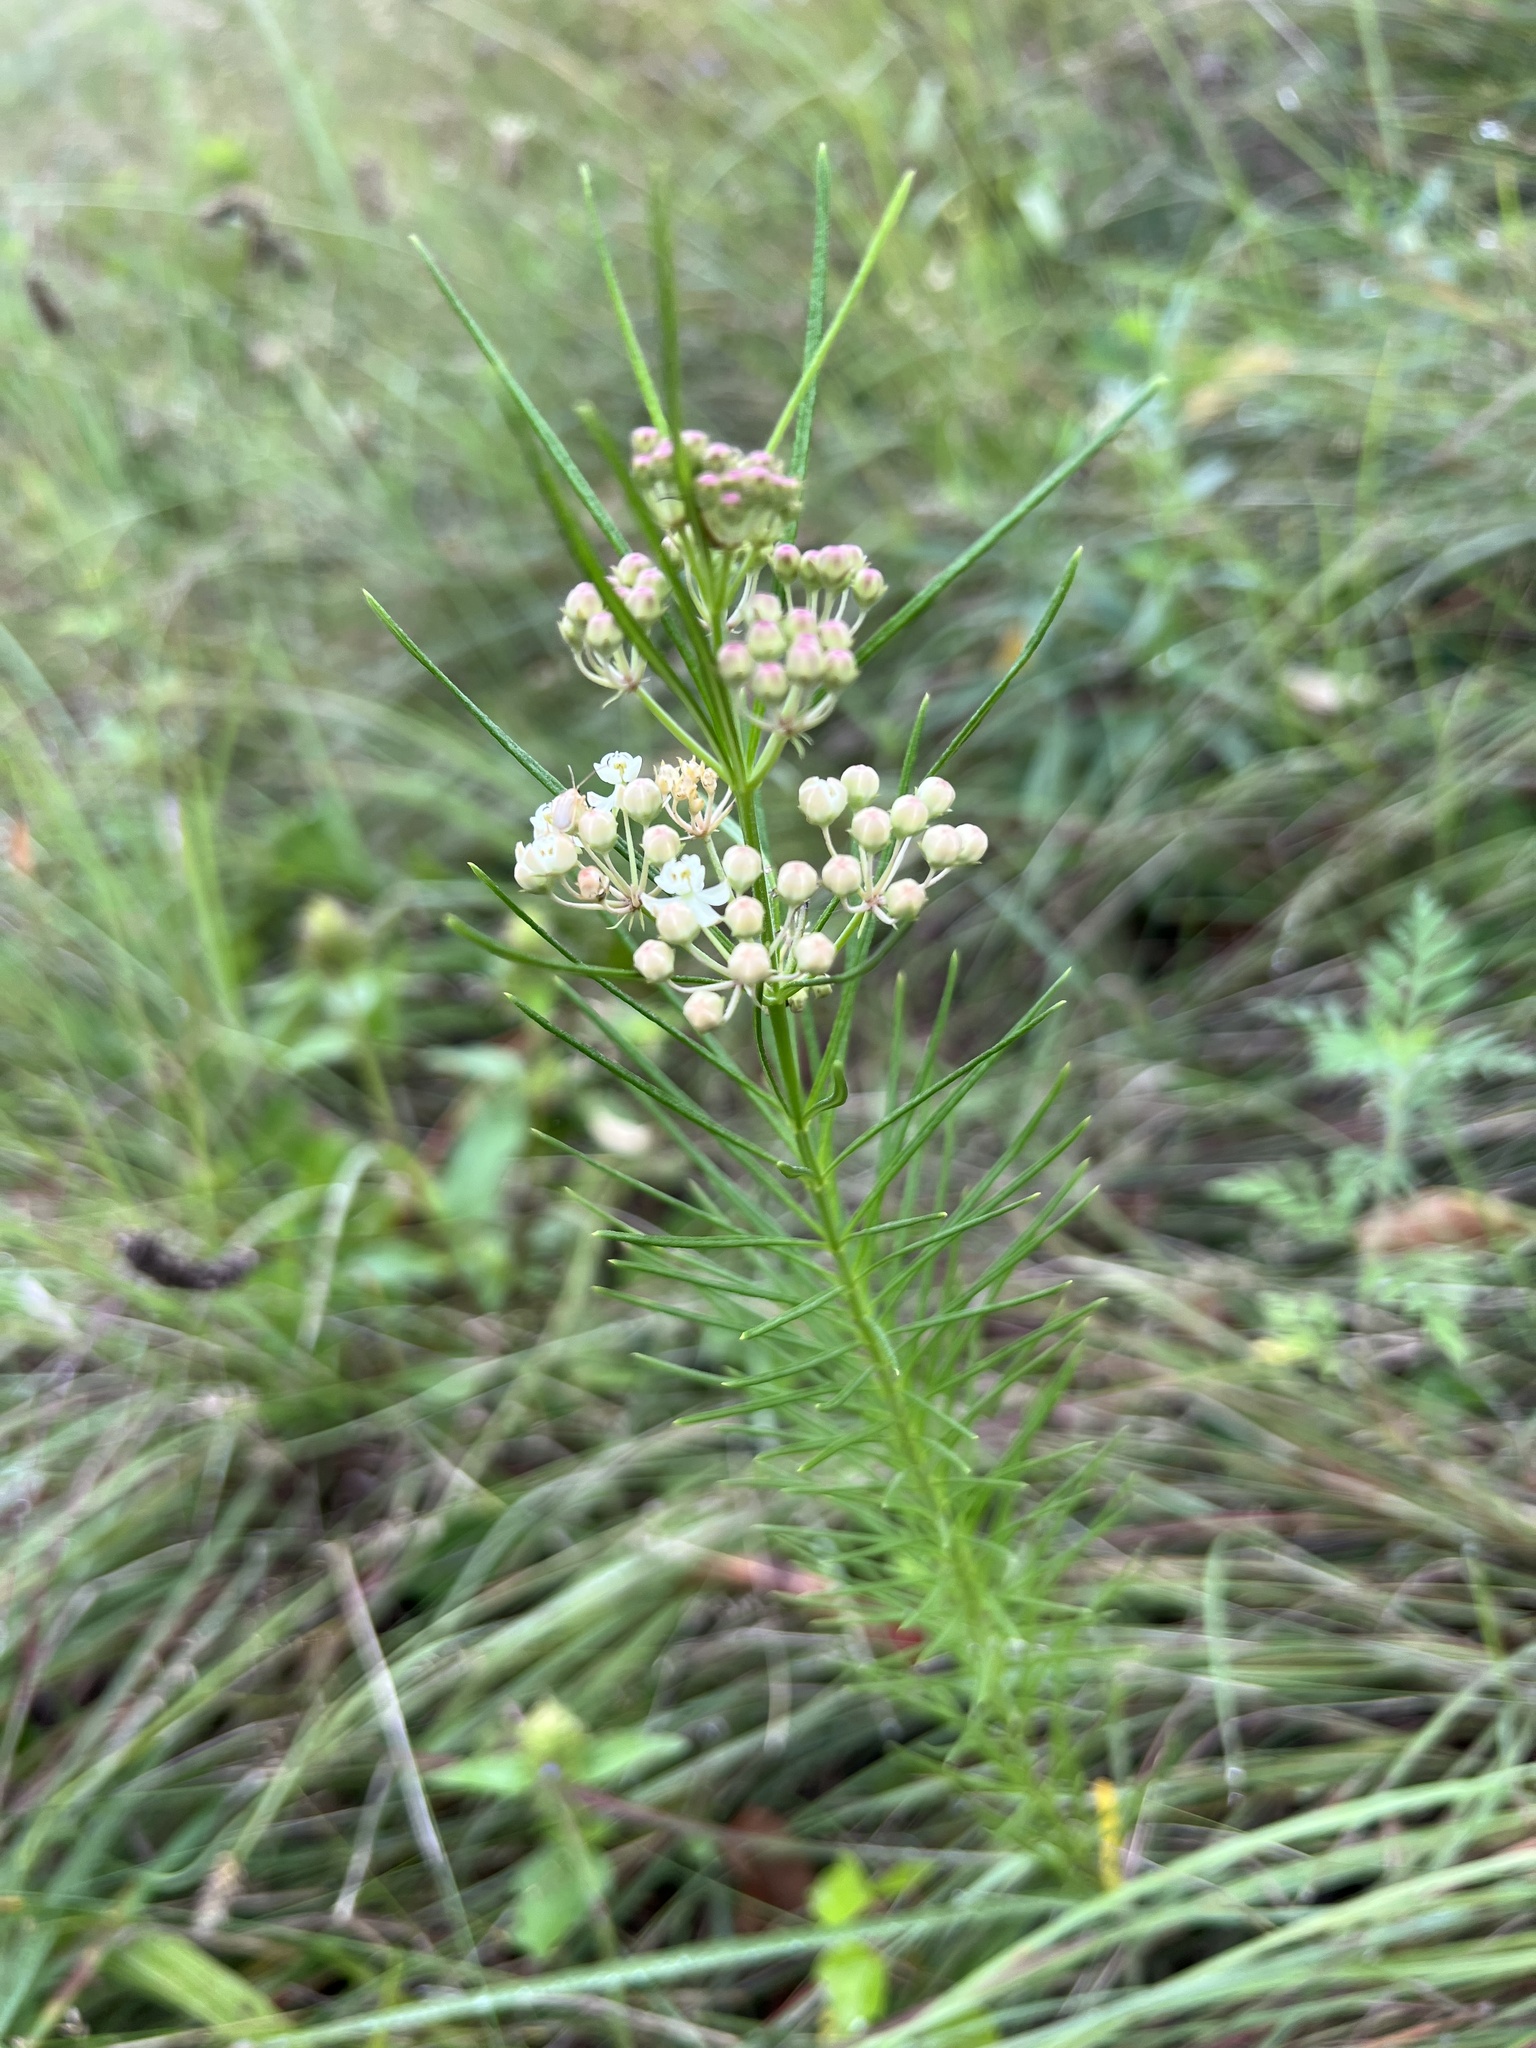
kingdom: Plantae
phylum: Tracheophyta
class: Magnoliopsida
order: Gentianales
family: Apocynaceae
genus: Asclepias
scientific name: Asclepias verticillata
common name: Eastern whorled milkweed
